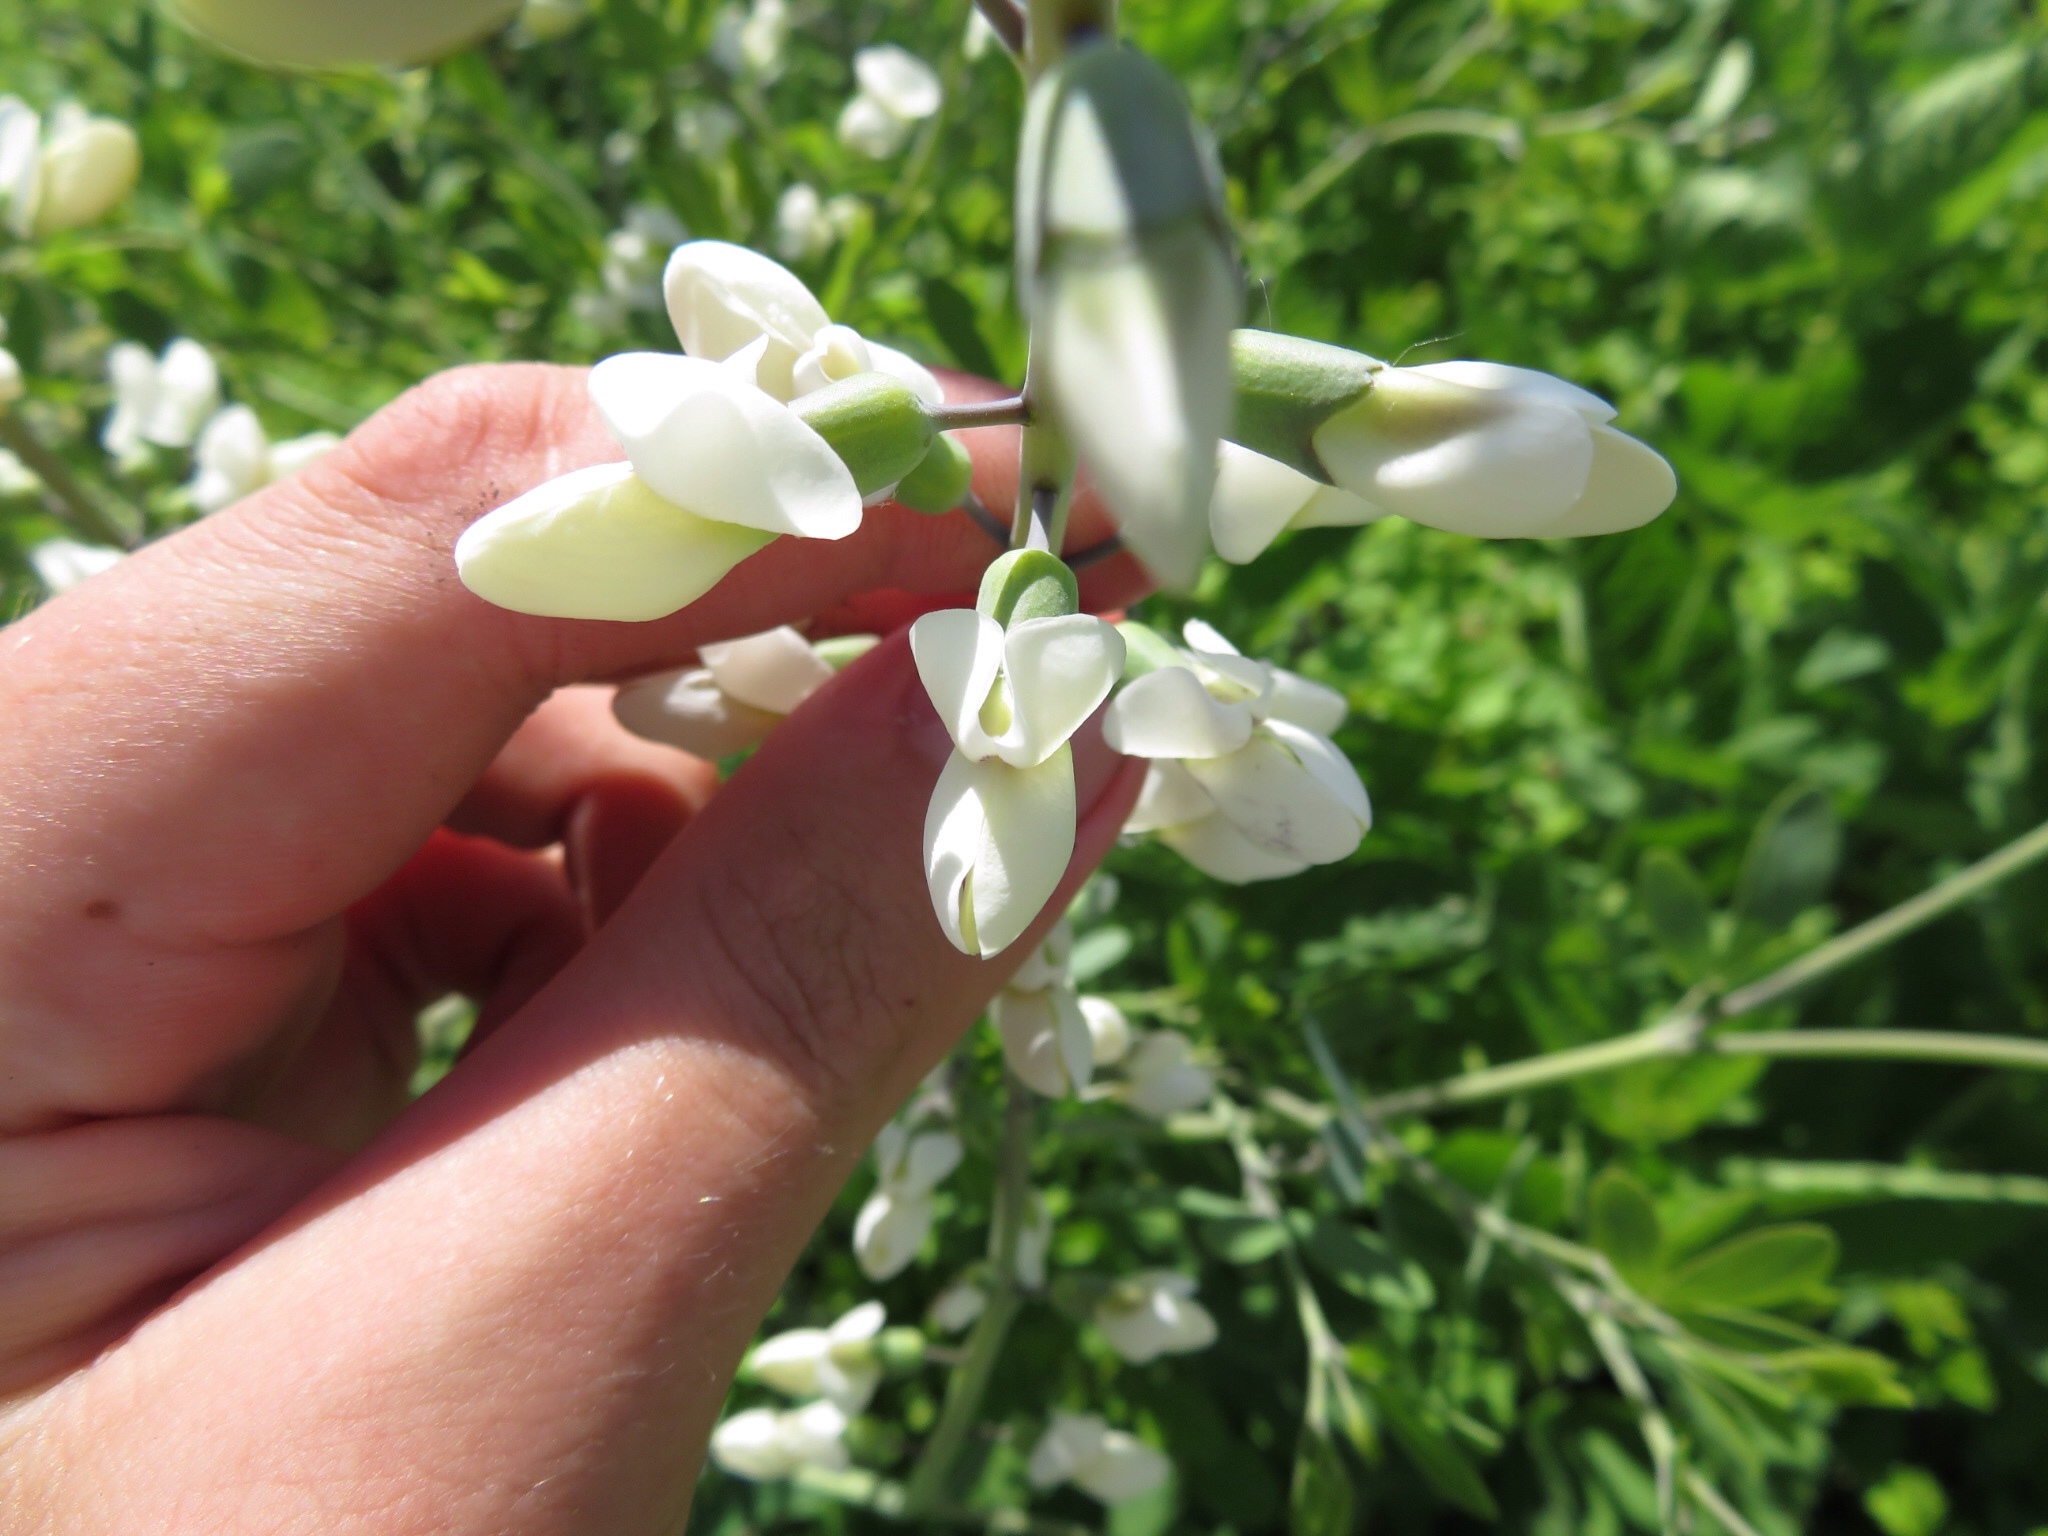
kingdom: Plantae
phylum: Tracheophyta
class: Magnoliopsida
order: Fabales
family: Fabaceae
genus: Baptisia
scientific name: Baptisia alba
